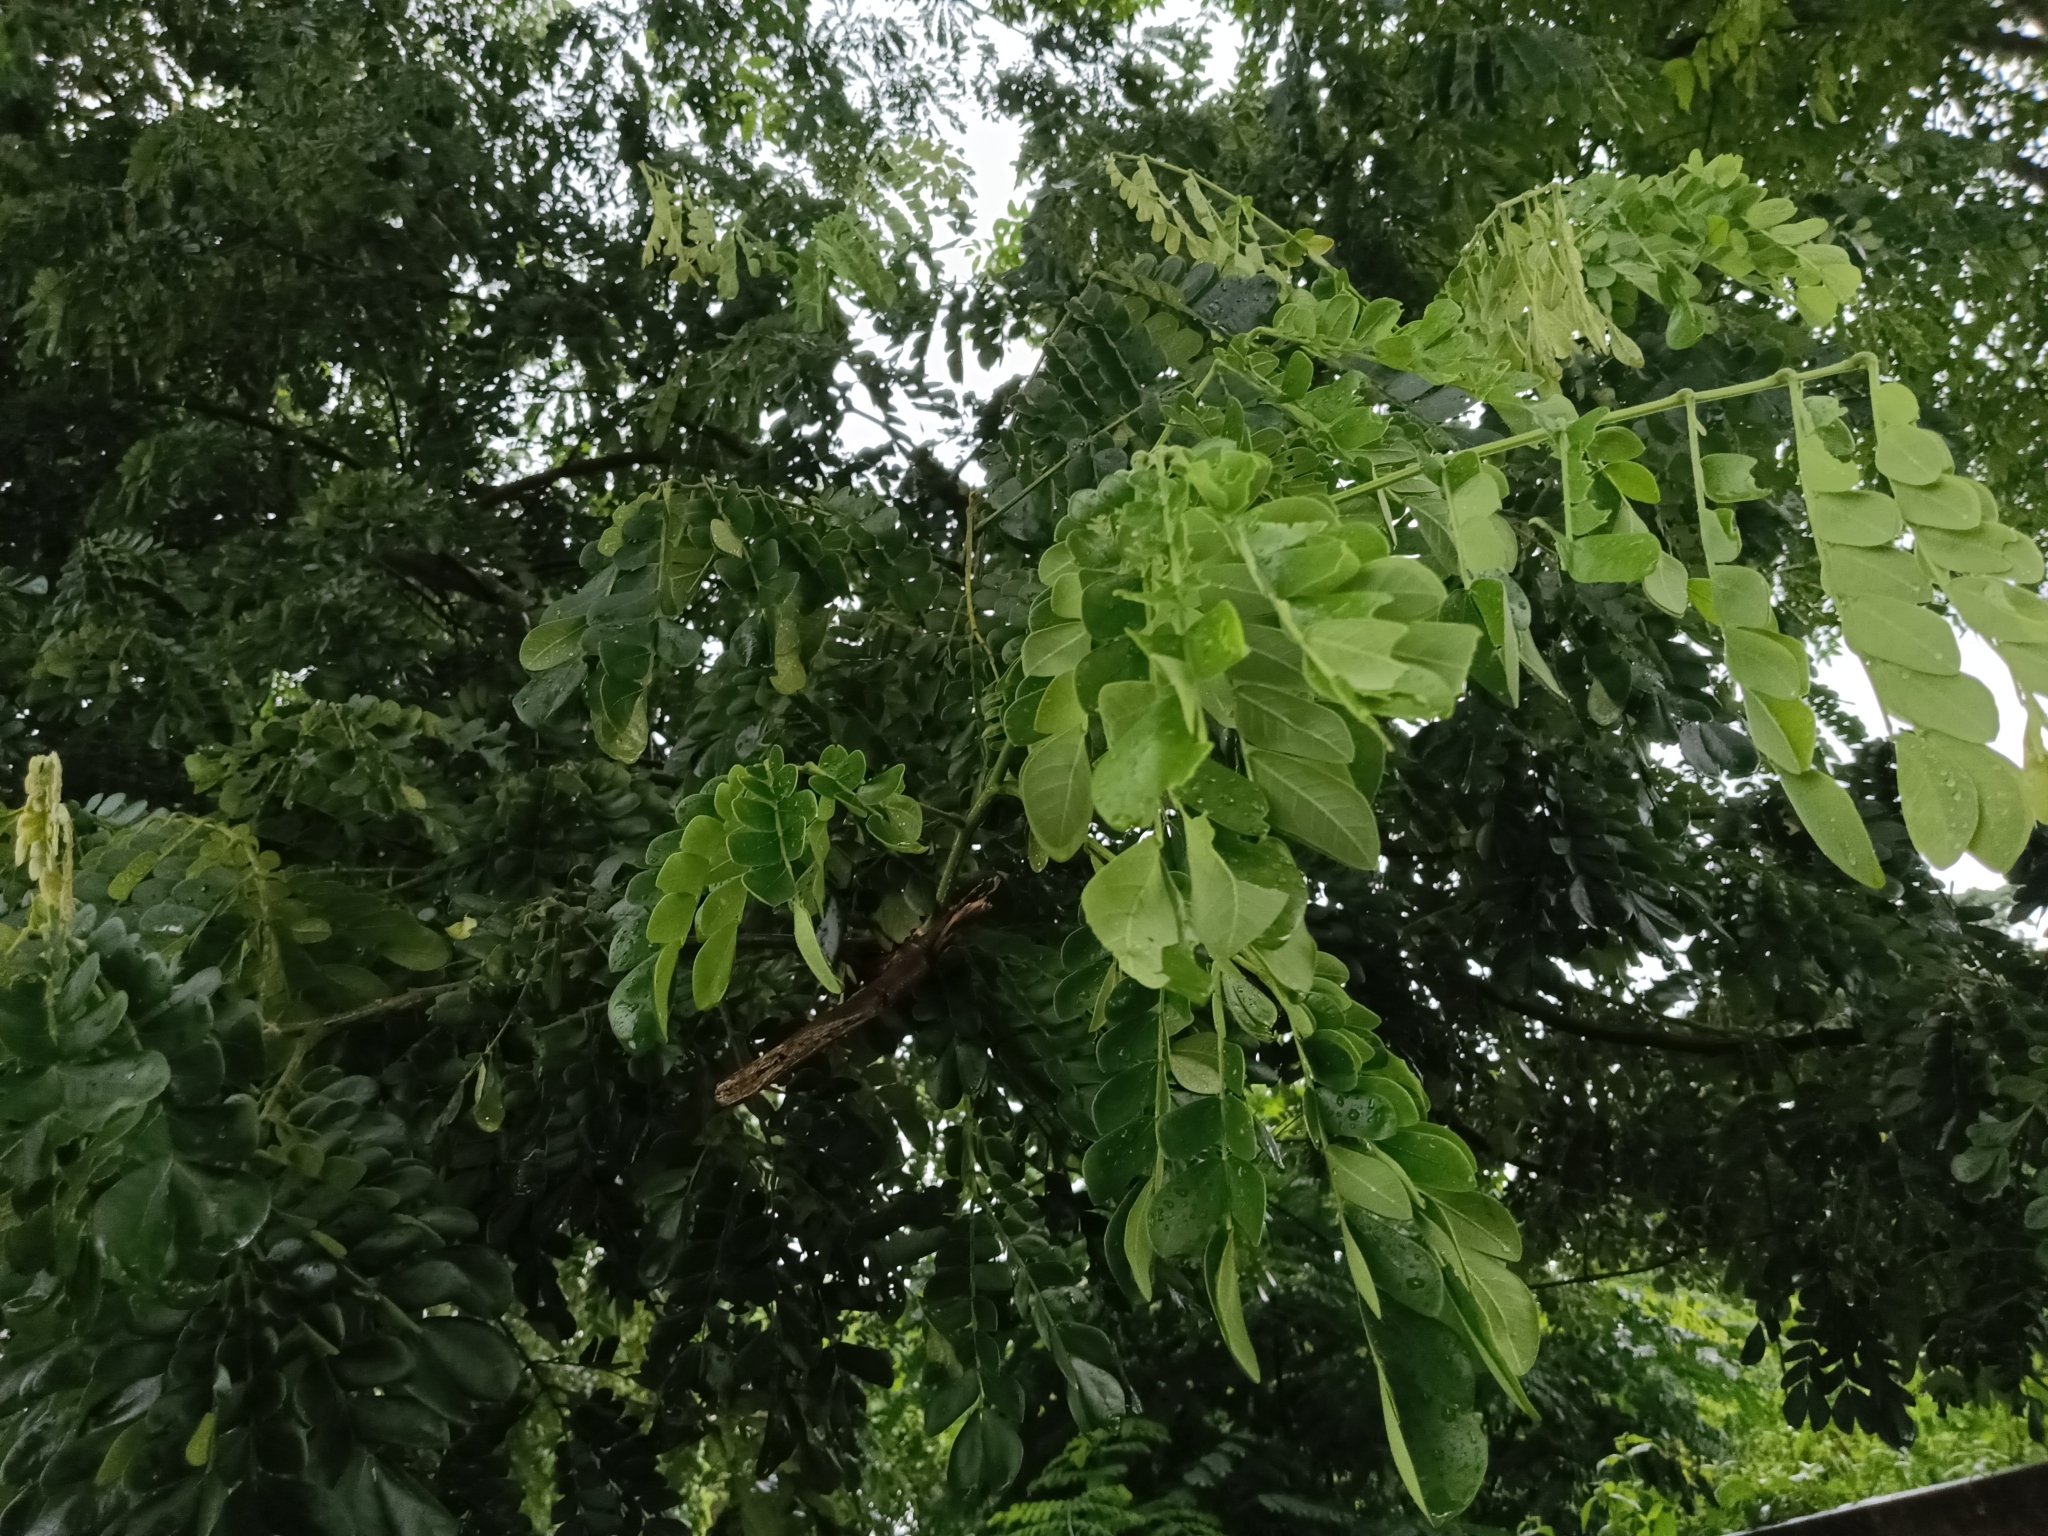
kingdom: Plantae
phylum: Tracheophyta
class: Magnoliopsida
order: Fabales
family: Fabaceae
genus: Samanea
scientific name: Samanea saman
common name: Raintree
